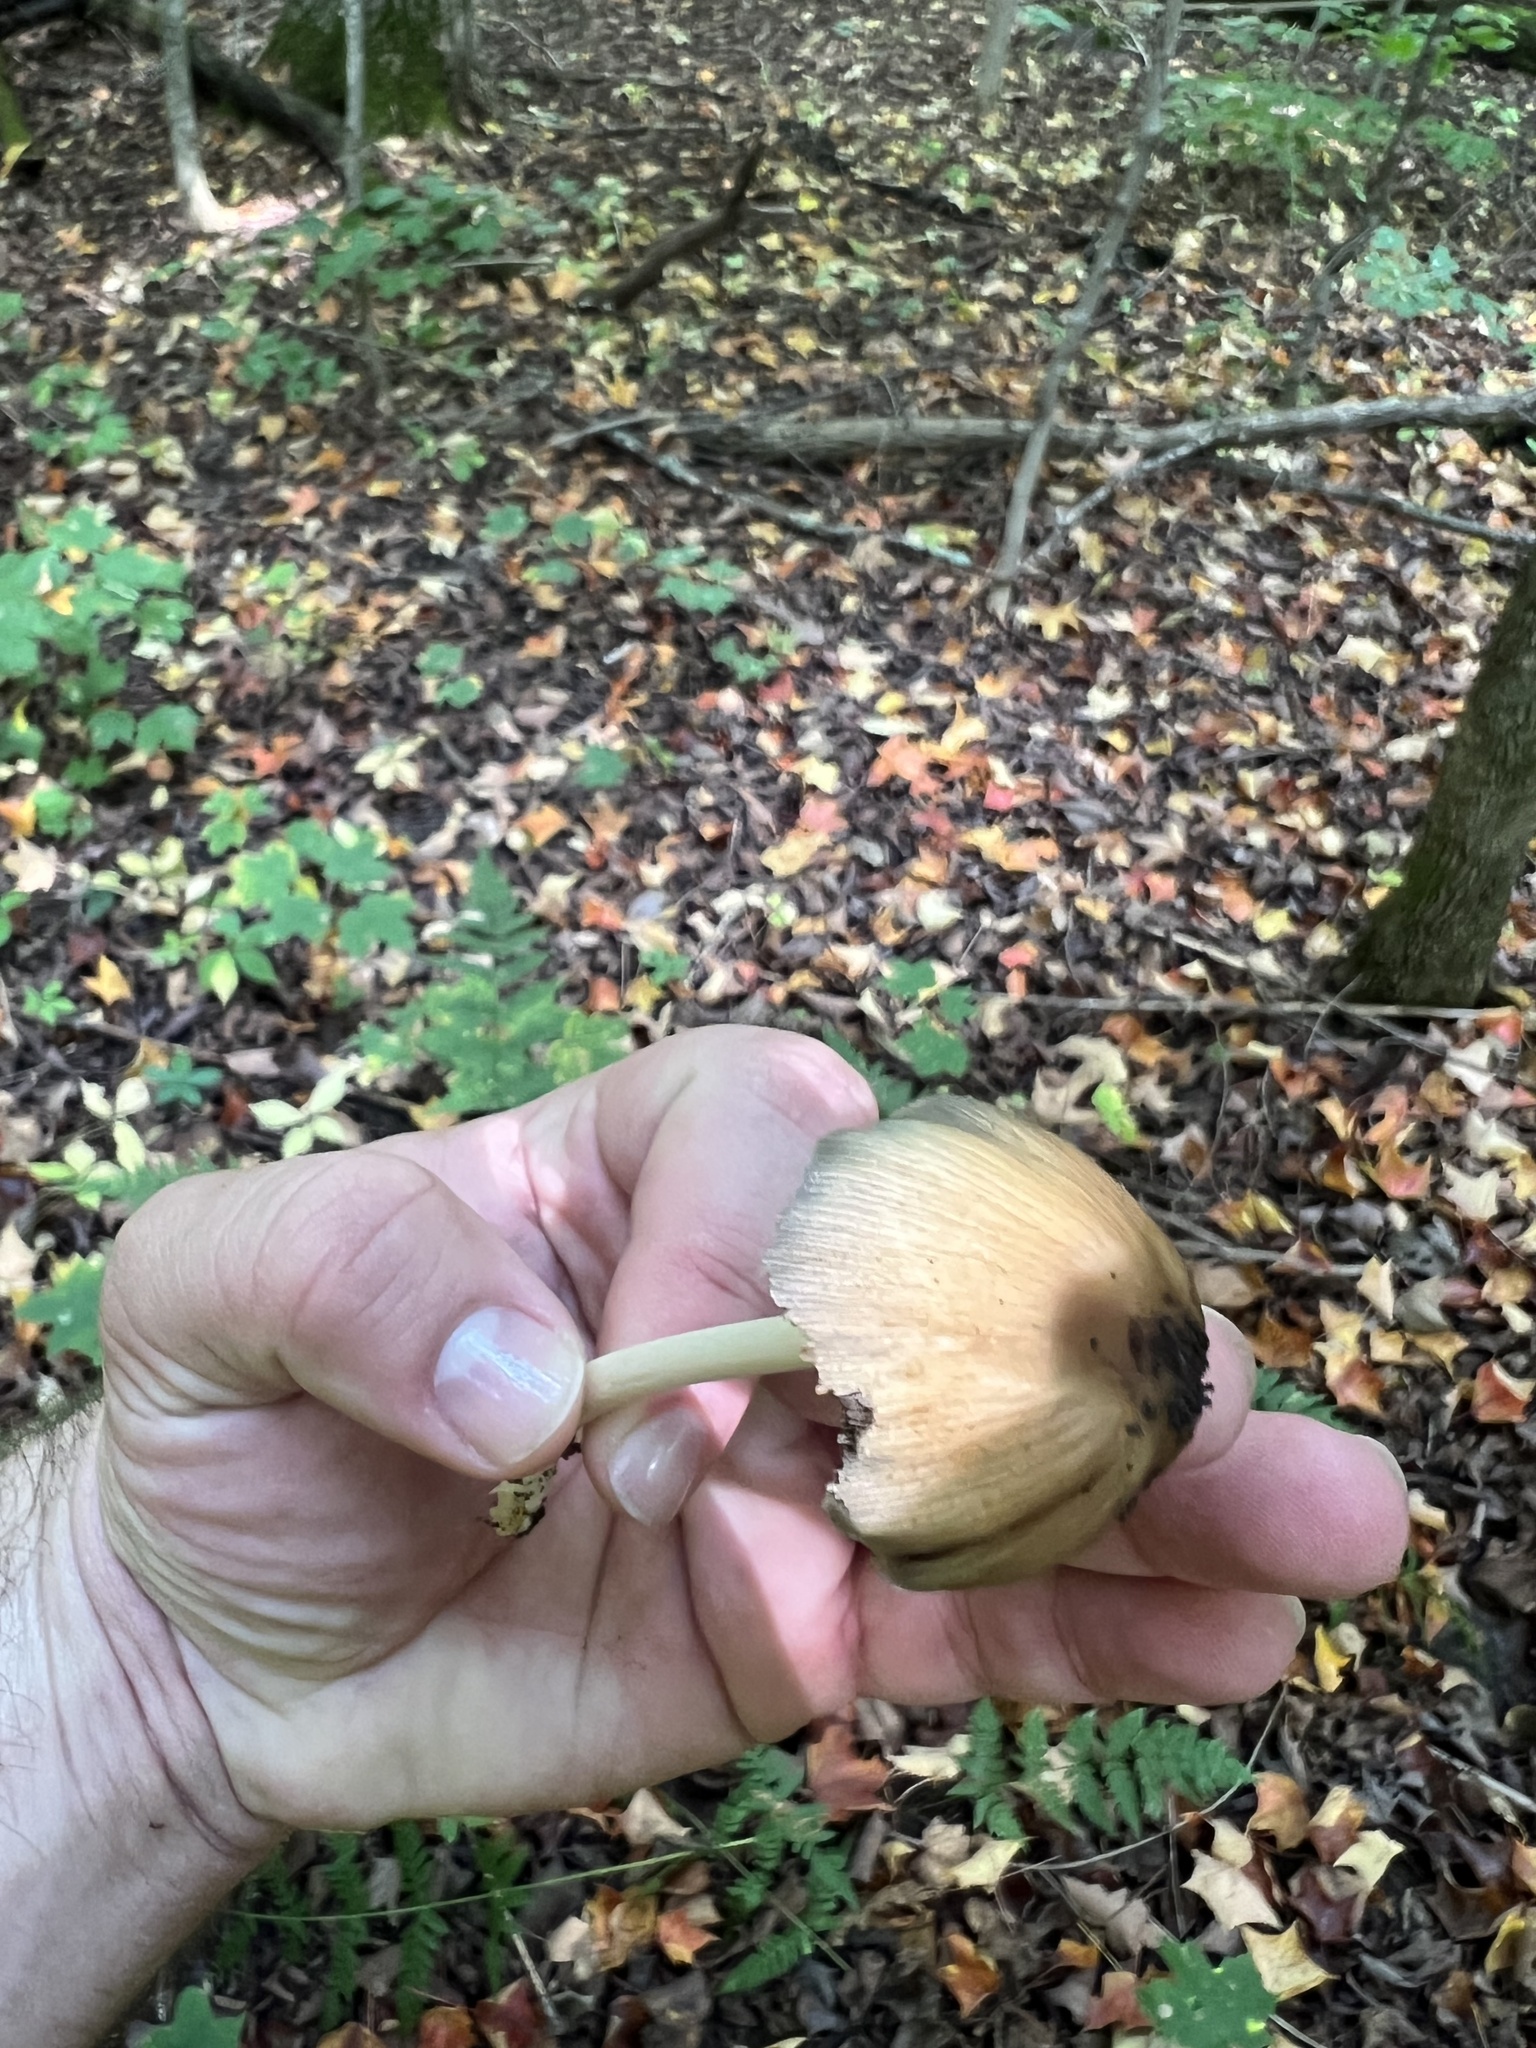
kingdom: Fungi
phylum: Basidiomycota
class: Agaricomycetes
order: Agaricales
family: Psathyrellaceae
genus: Coprinellus
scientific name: Coprinellus micaceus
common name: Glistening ink-cap
